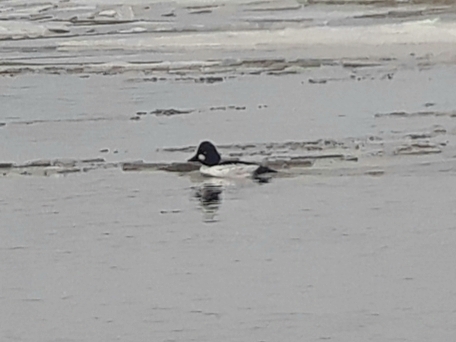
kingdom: Animalia
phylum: Chordata
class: Aves
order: Anseriformes
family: Anatidae
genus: Bucephala
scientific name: Bucephala clangula
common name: Common goldeneye
